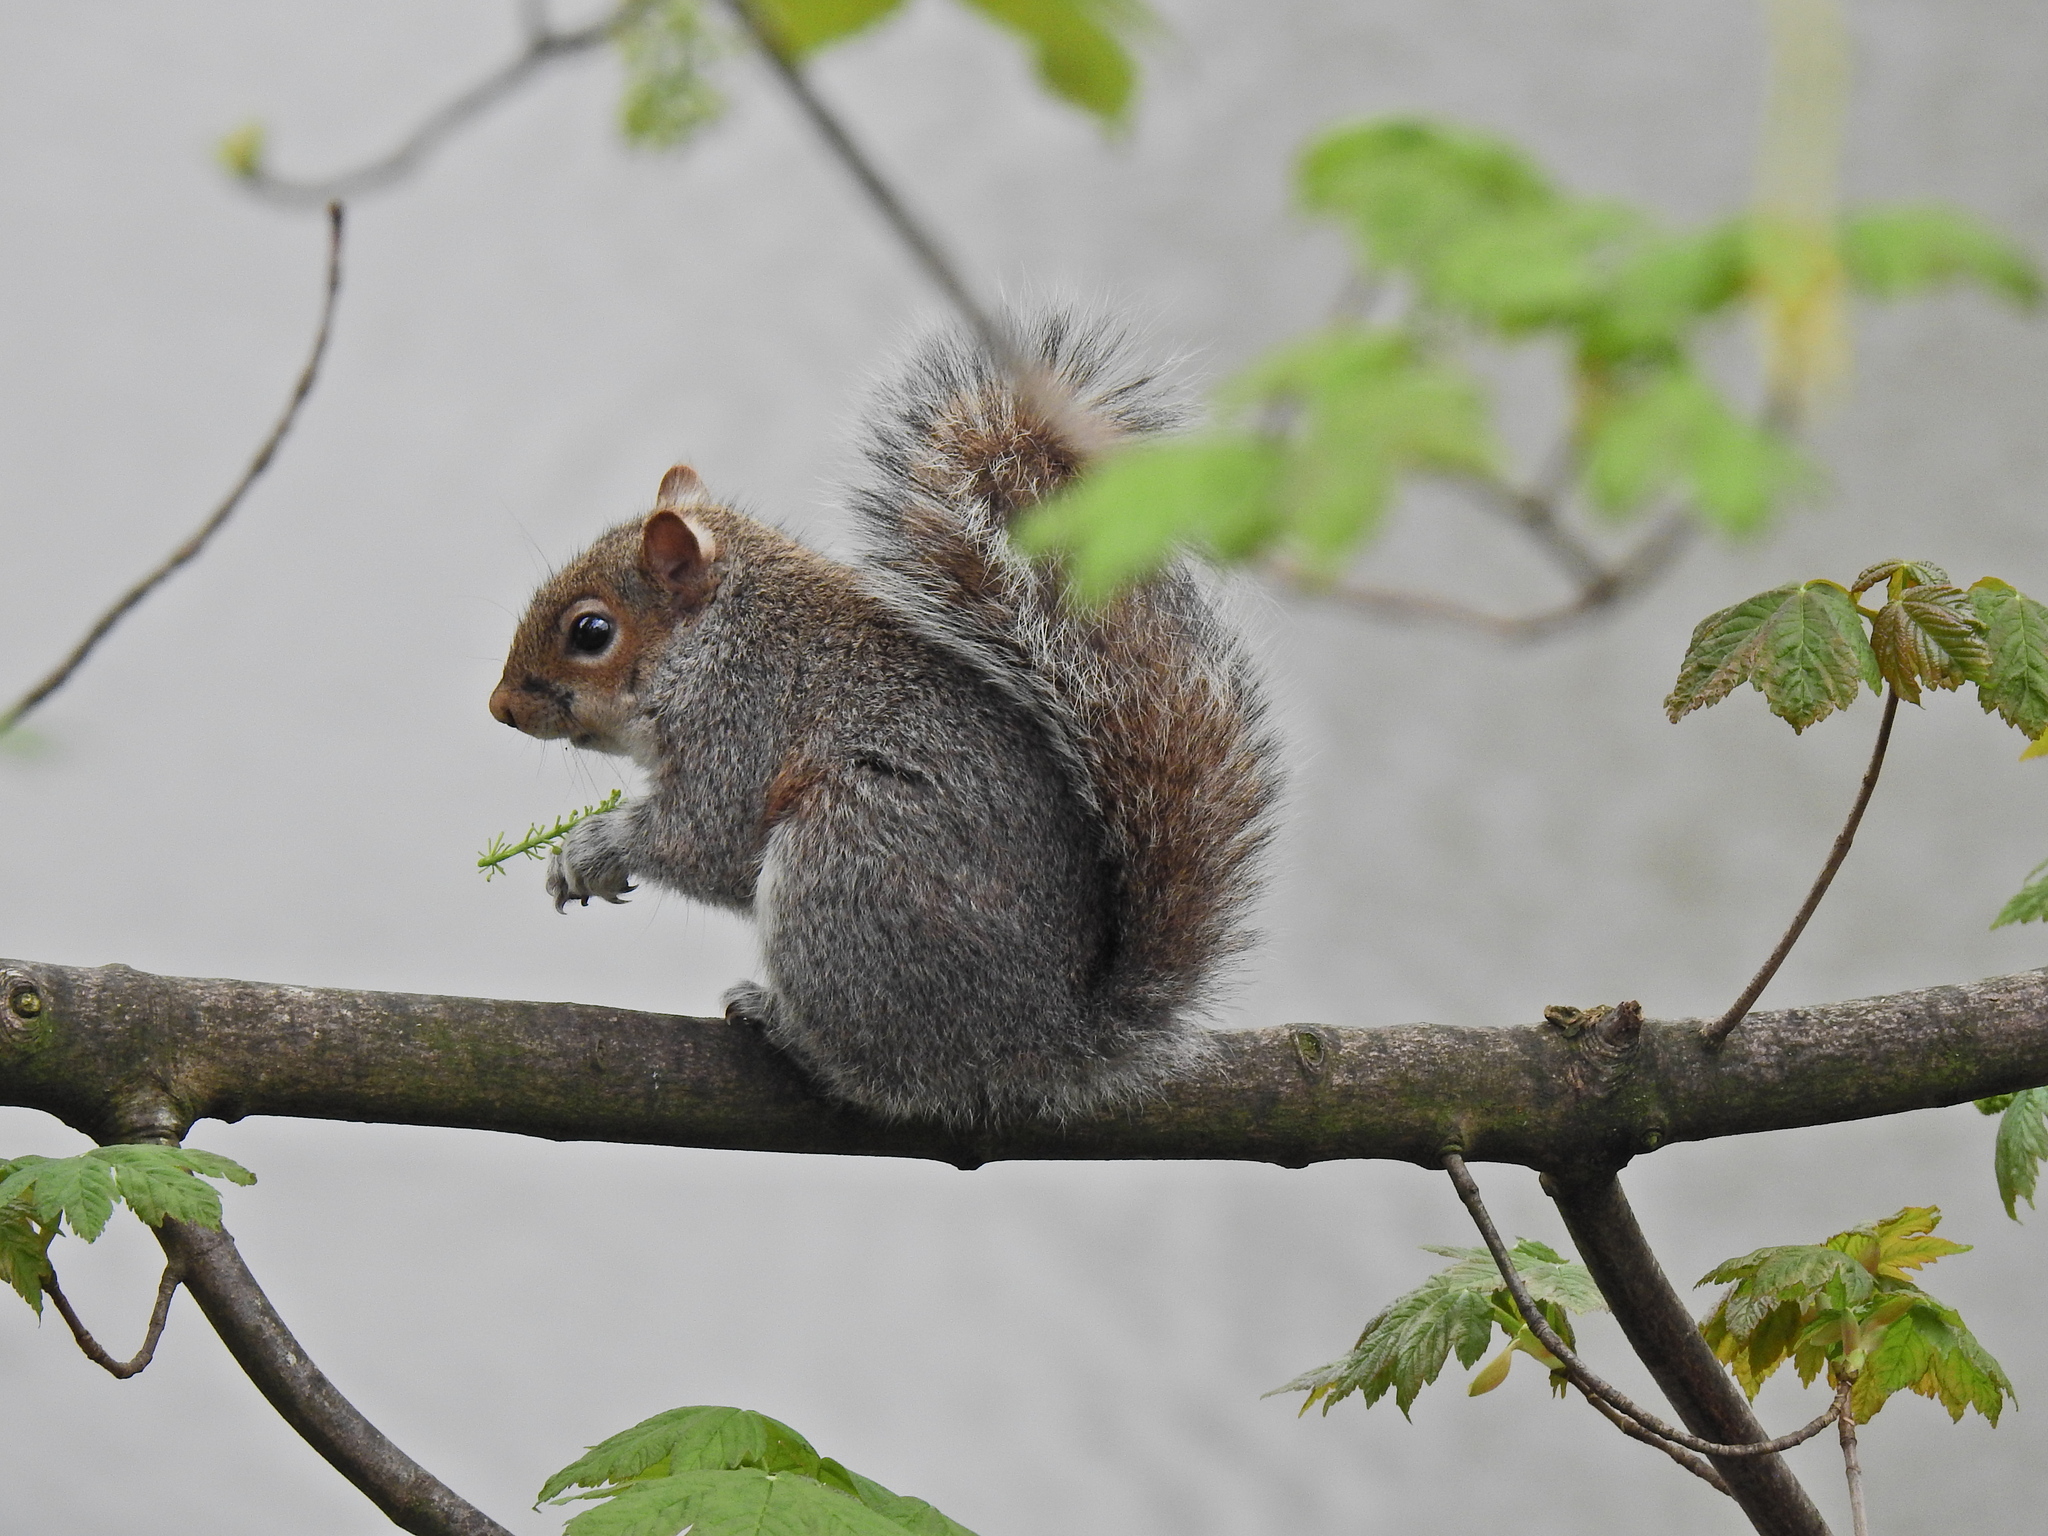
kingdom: Animalia
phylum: Chordata
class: Mammalia
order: Rodentia
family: Sciuridae
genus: Sciurus
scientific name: Sciurus carolinensis
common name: Eastern gray squirrel
